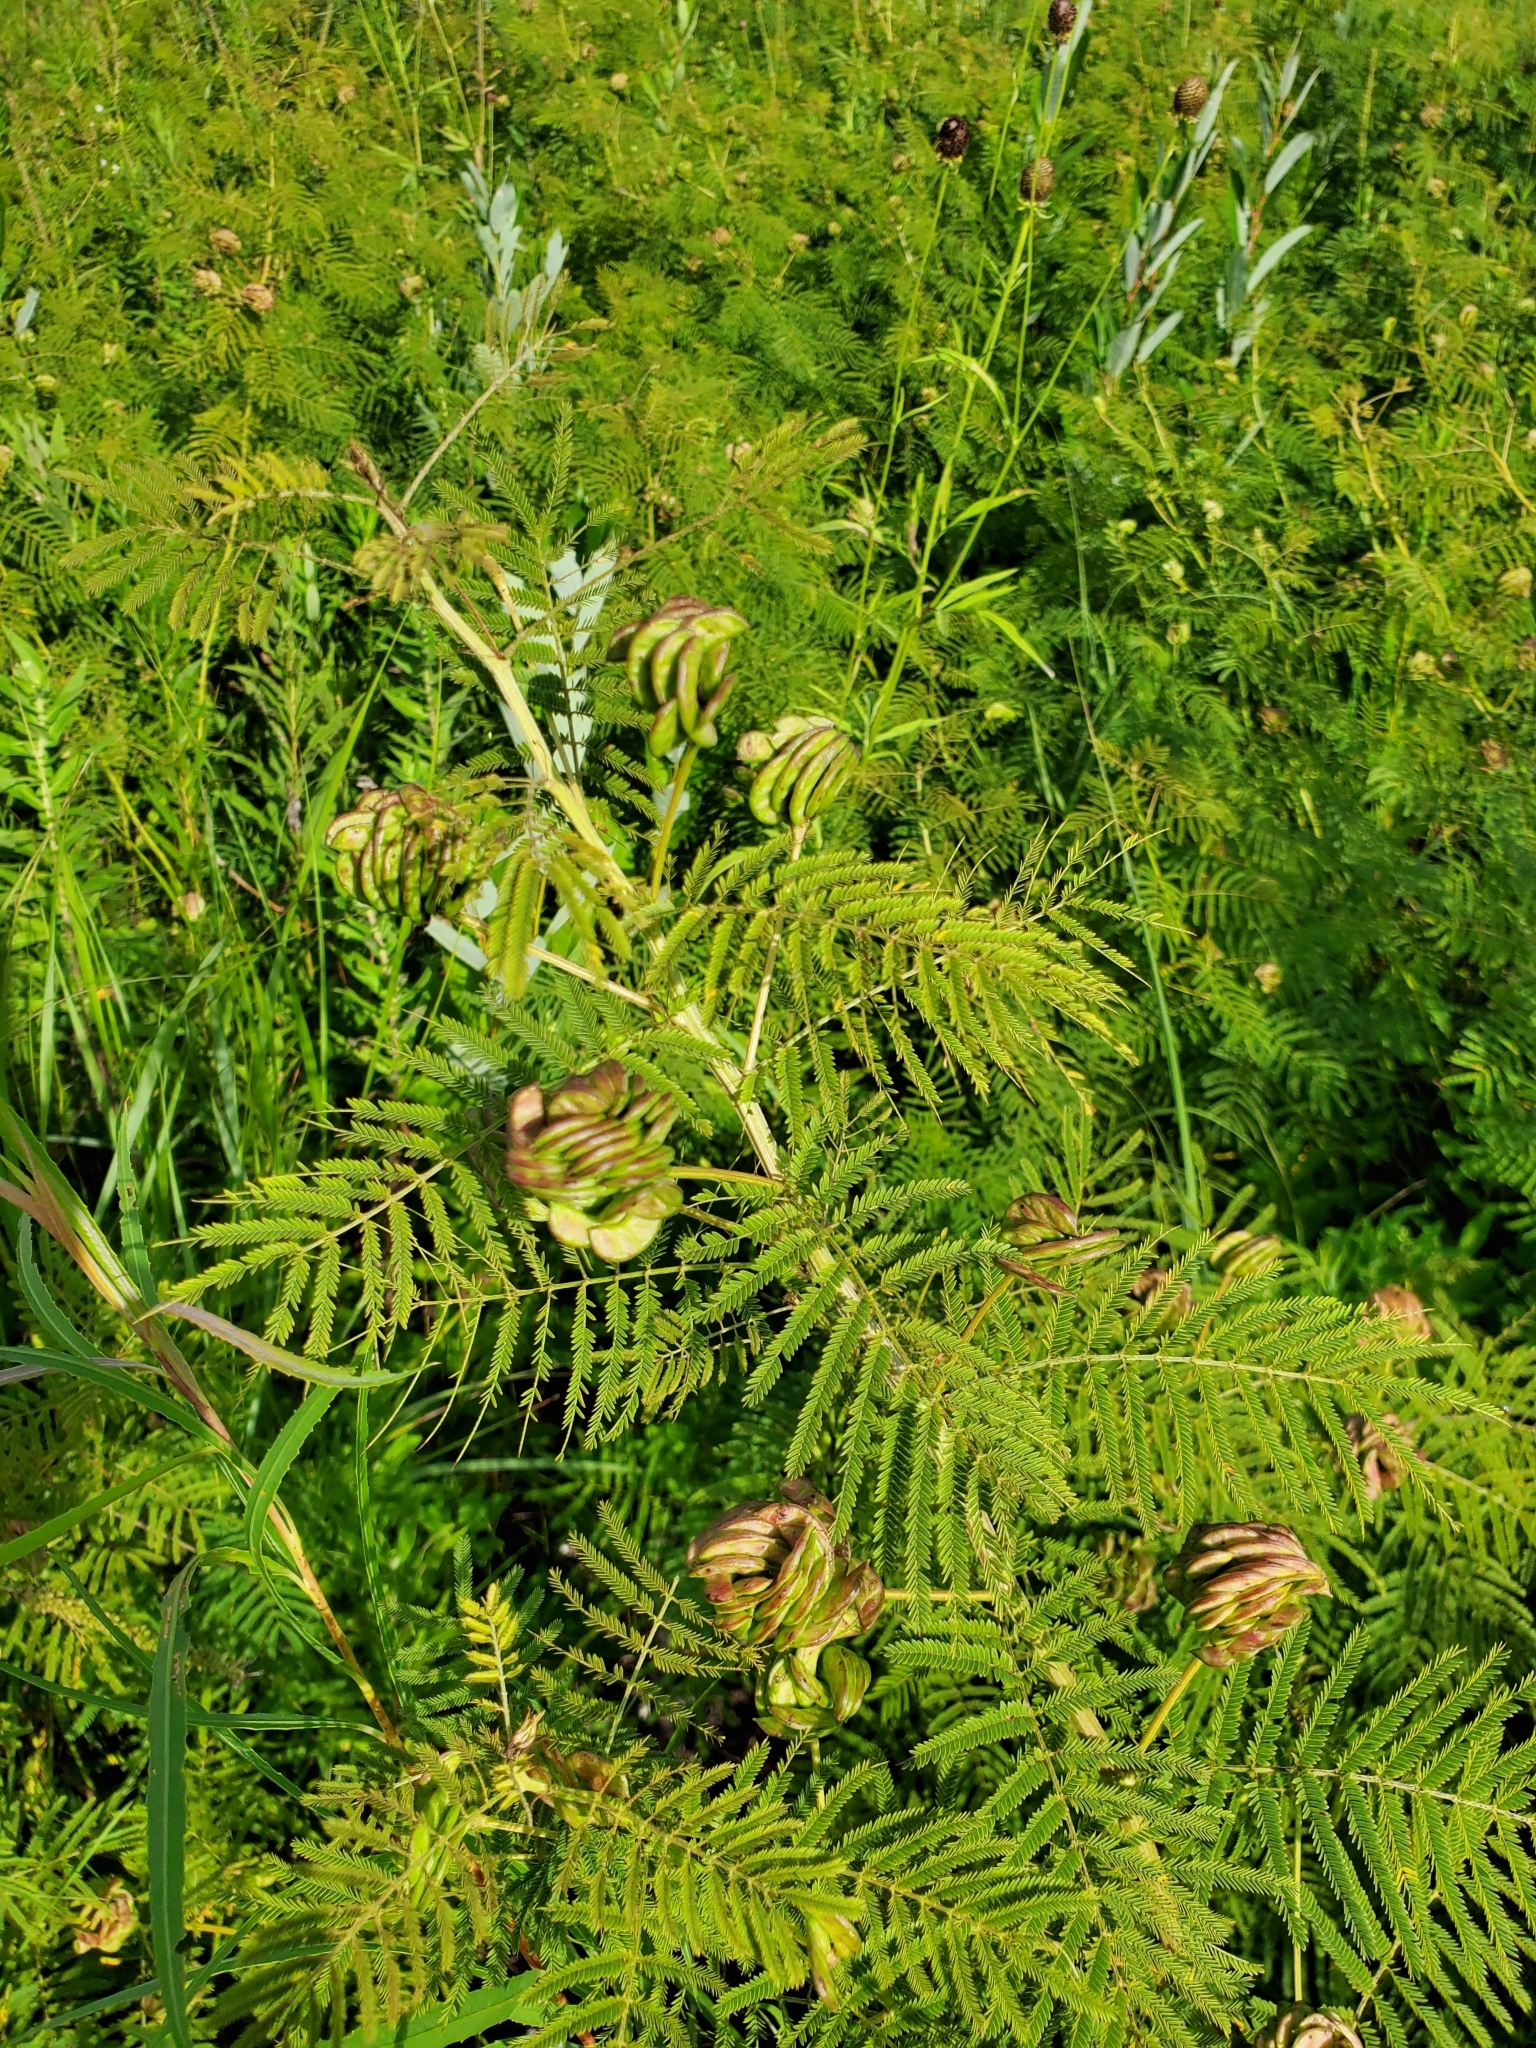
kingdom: Plantae
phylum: Tracheophyta
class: Magnoliopsida
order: Fabales
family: Fabaceae
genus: Desmanthus
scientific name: Desmanthus illinoensis
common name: Illinois bundle-flower
